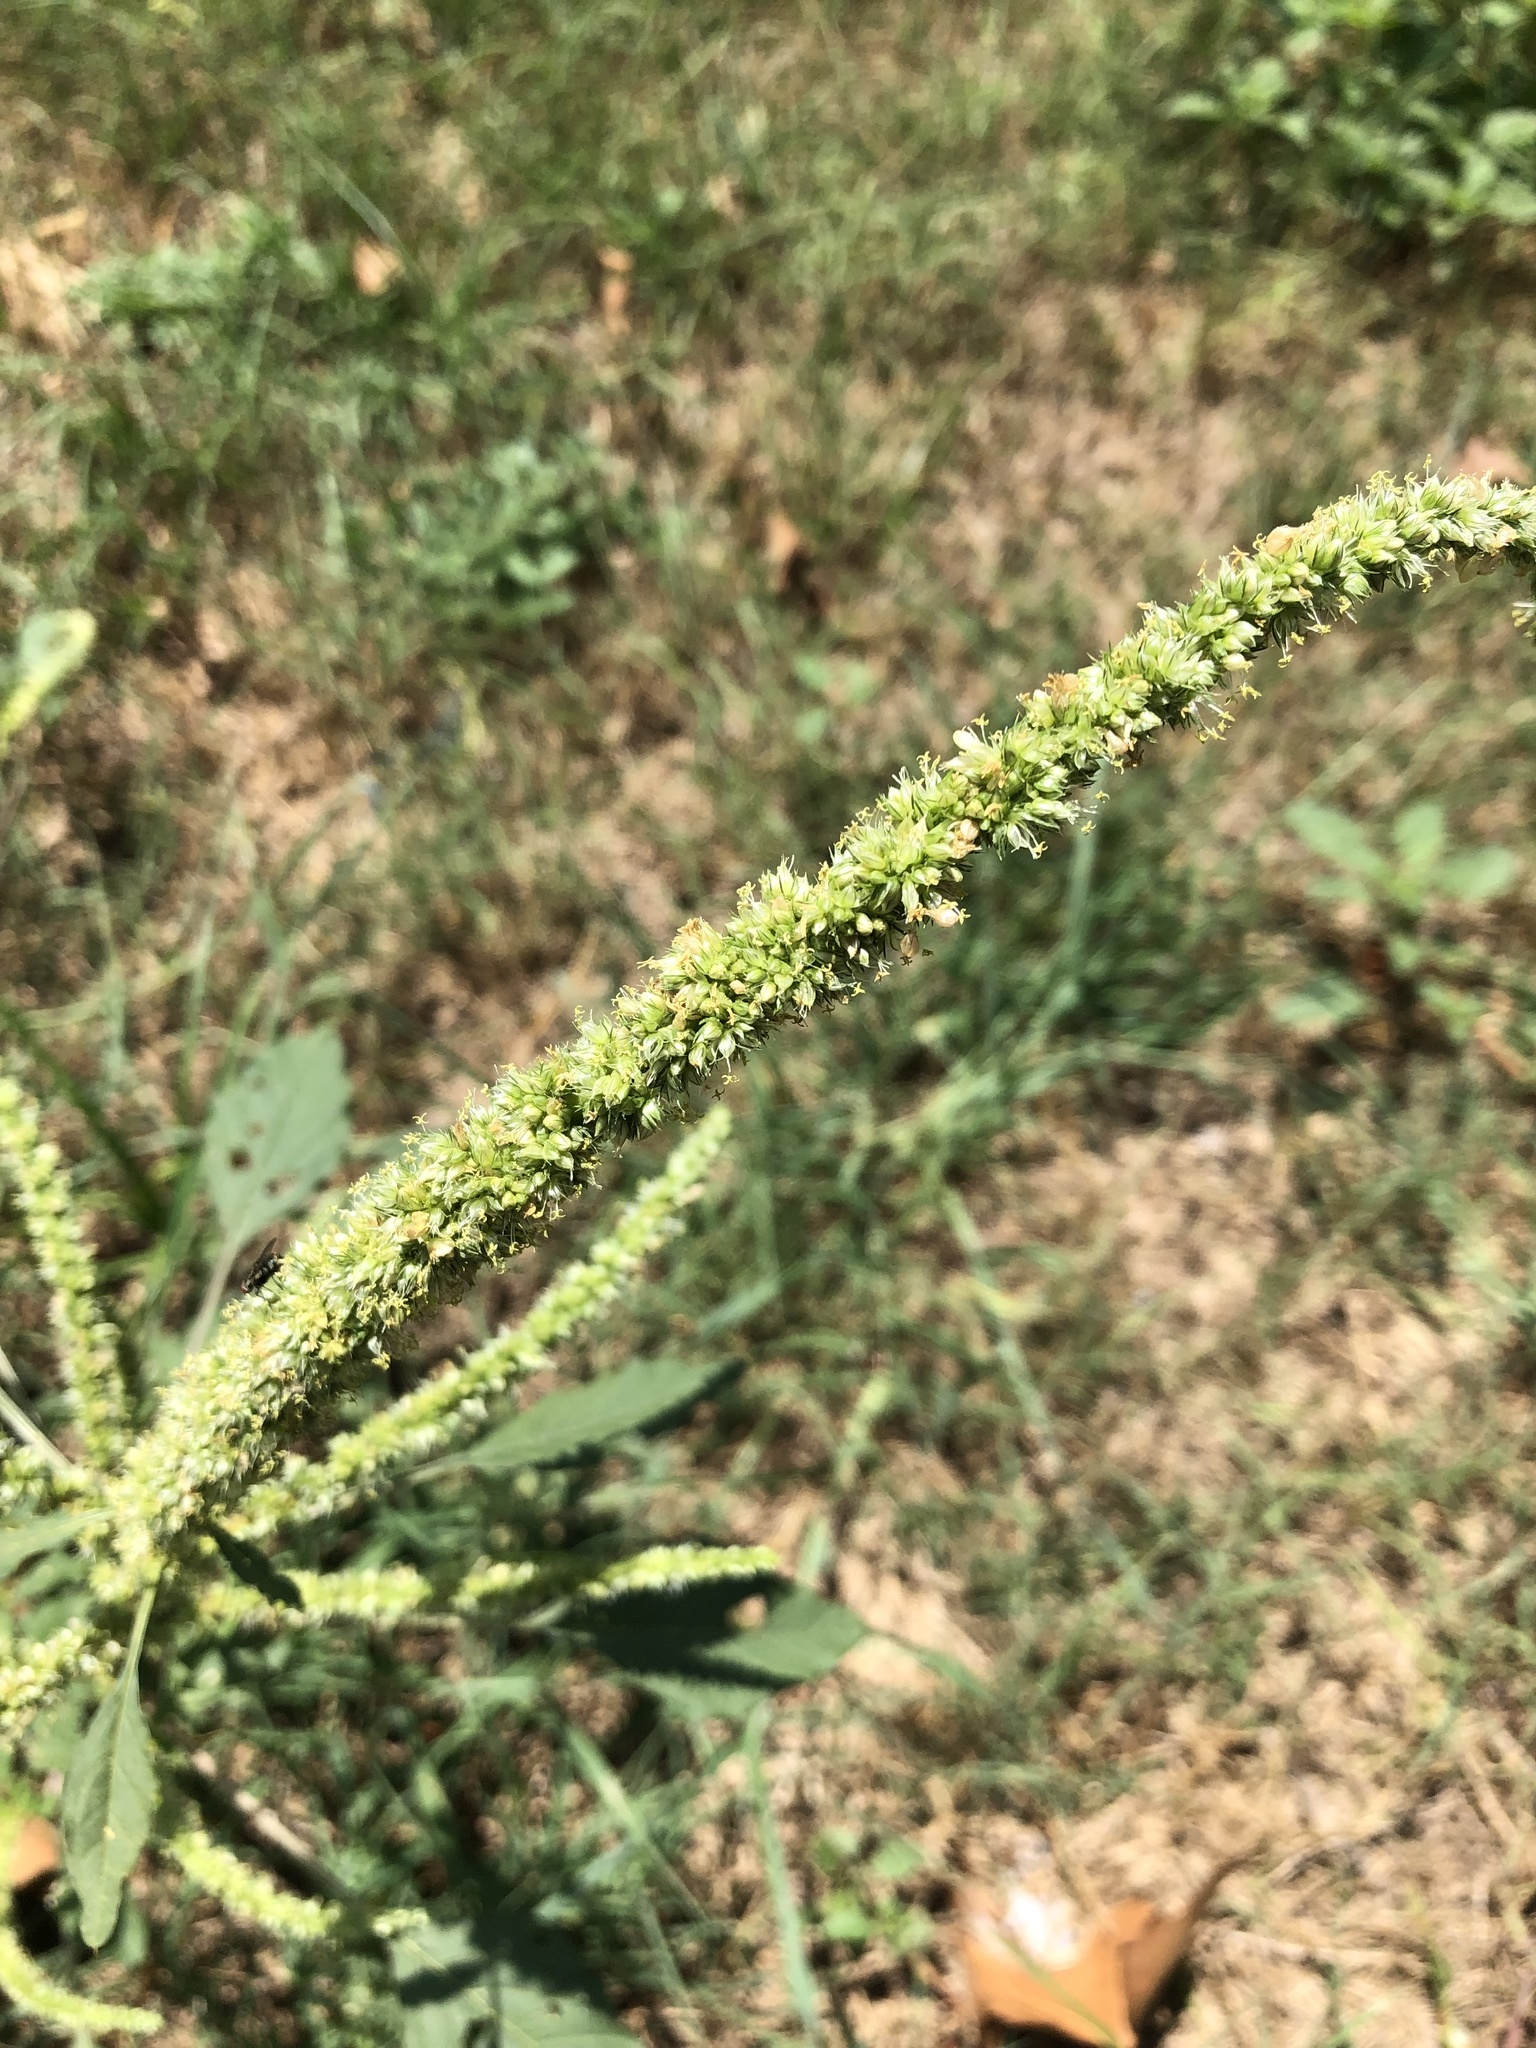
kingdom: Plantae
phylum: Tracheophyta
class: Magnoliopsida
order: Caryophyllales
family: Amaranthaceae
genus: Amaranthus
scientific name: Amaranthus palmeri
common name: Dioecious amaranth
